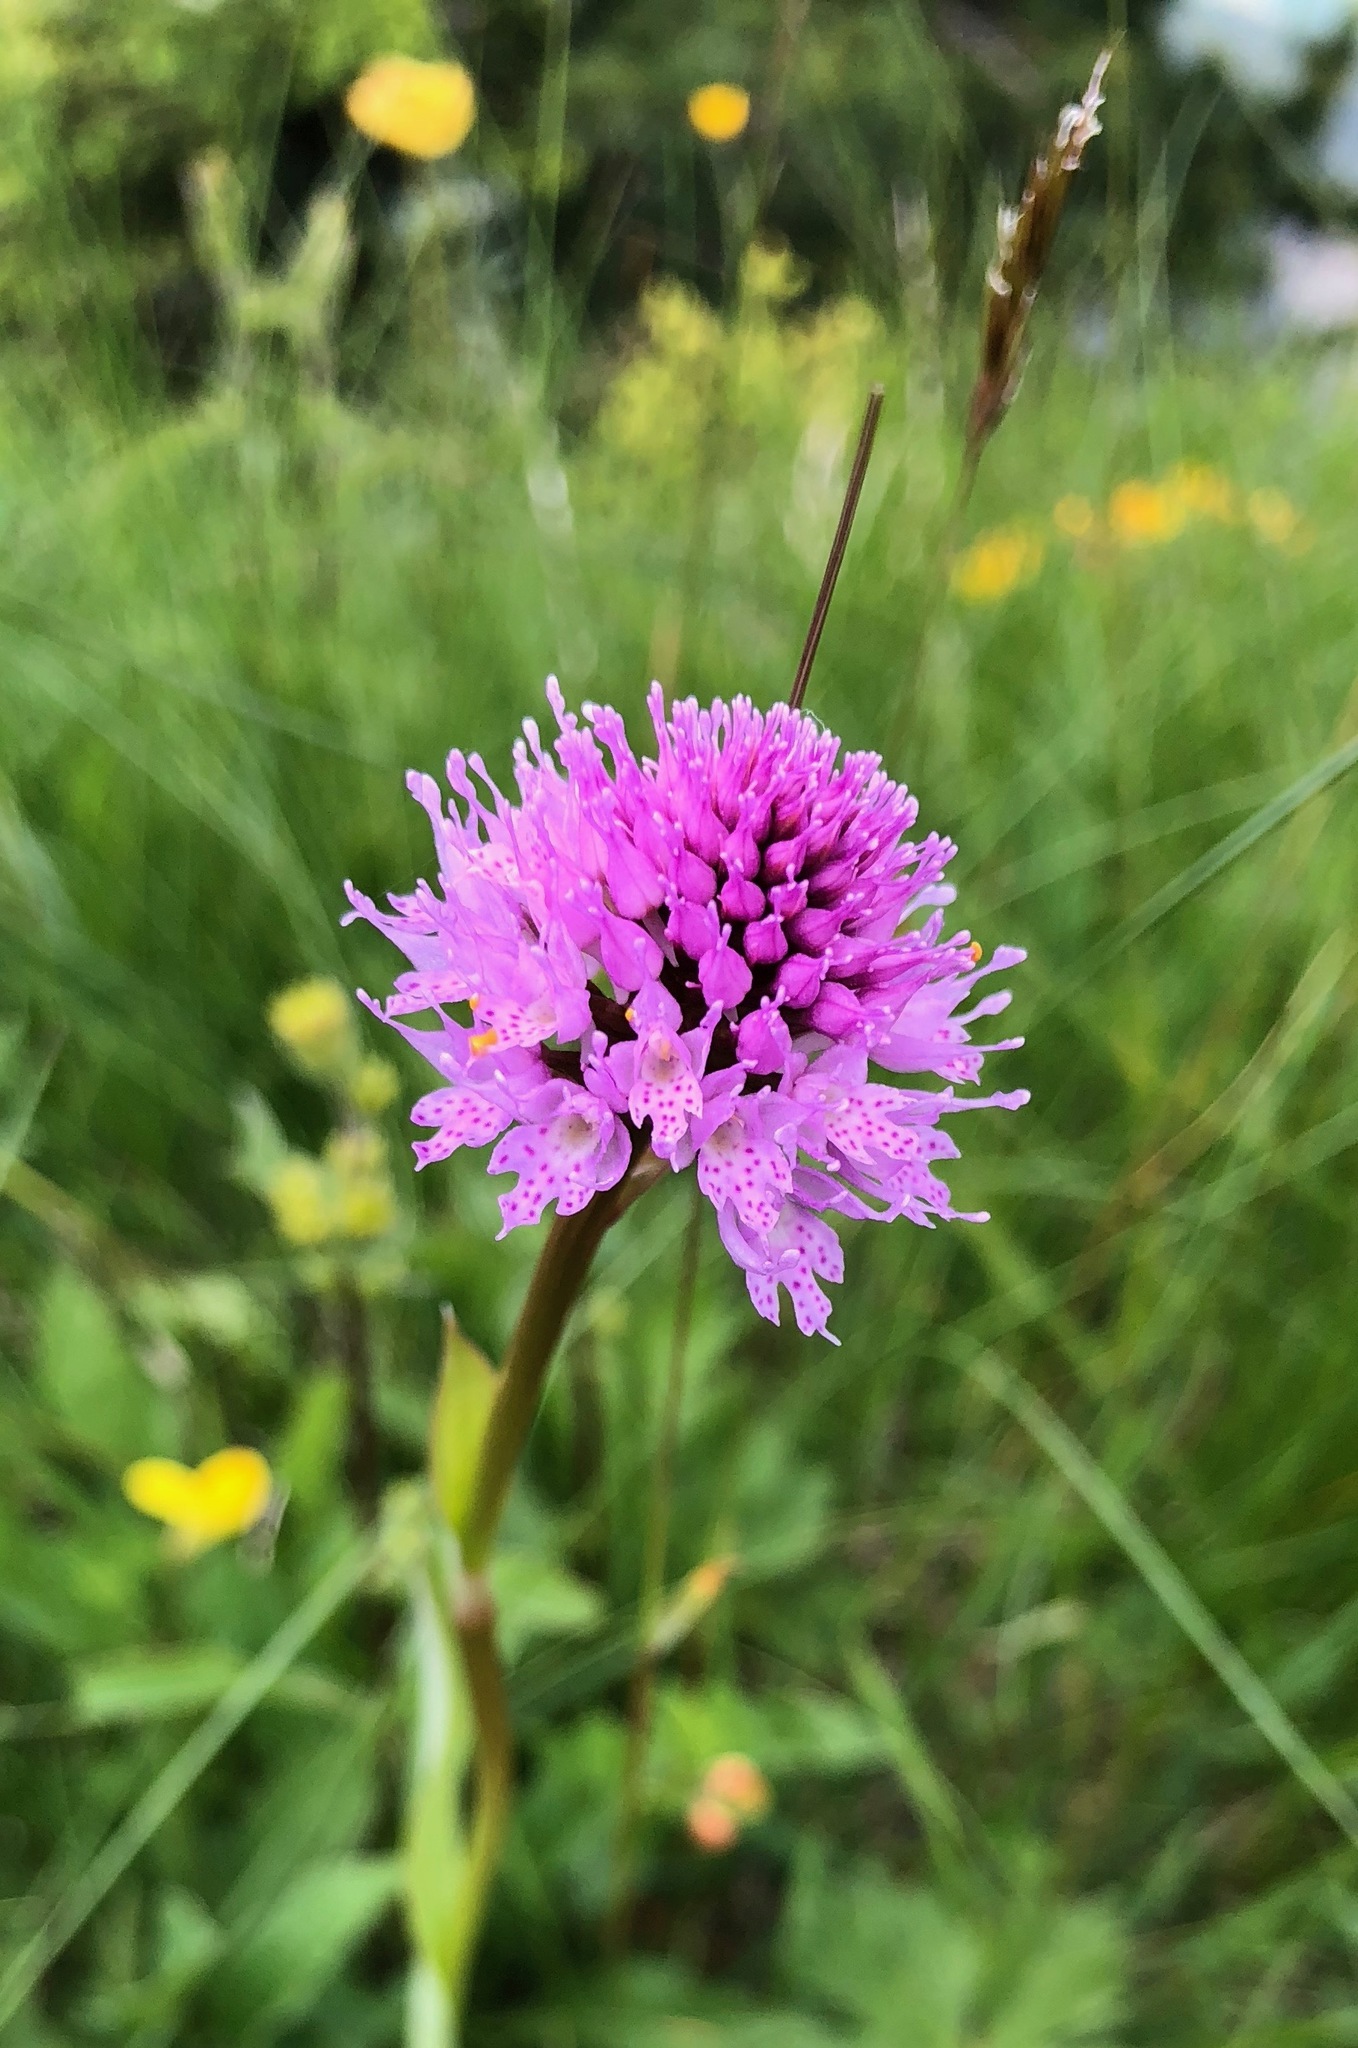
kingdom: Plantae
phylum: Tracheophyta
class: Liliopsida
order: Asparagales
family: Orchidaceae
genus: Traunsteinera
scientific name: Traunsteinera globosa
